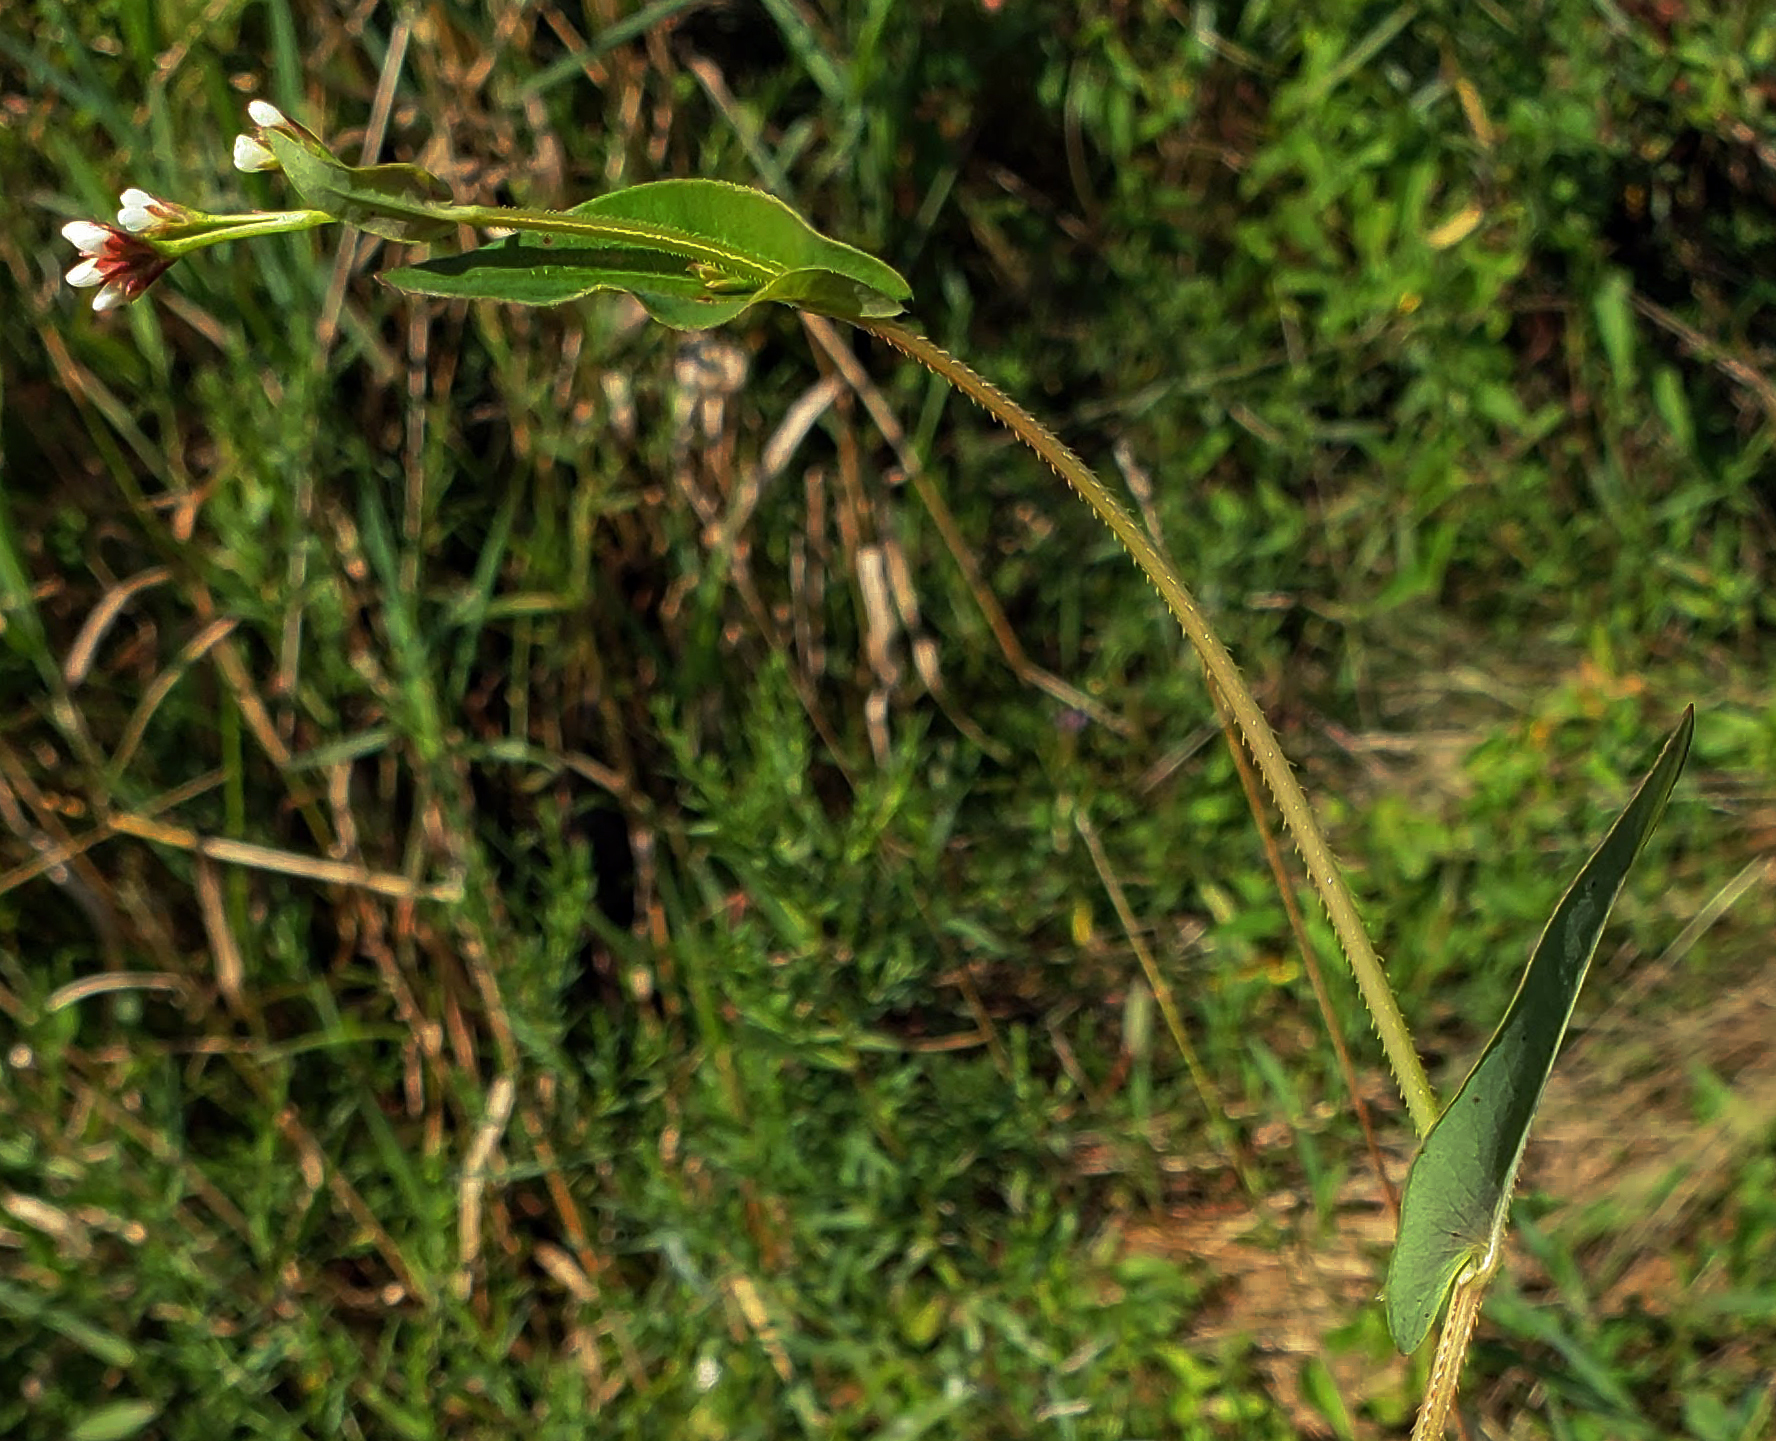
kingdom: Plantae
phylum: Tracheophyta
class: Magnoliopsida
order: Caryophyllales
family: Polygonaceae
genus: Persicaria
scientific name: Persicaria sagittata
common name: American tearthumb
